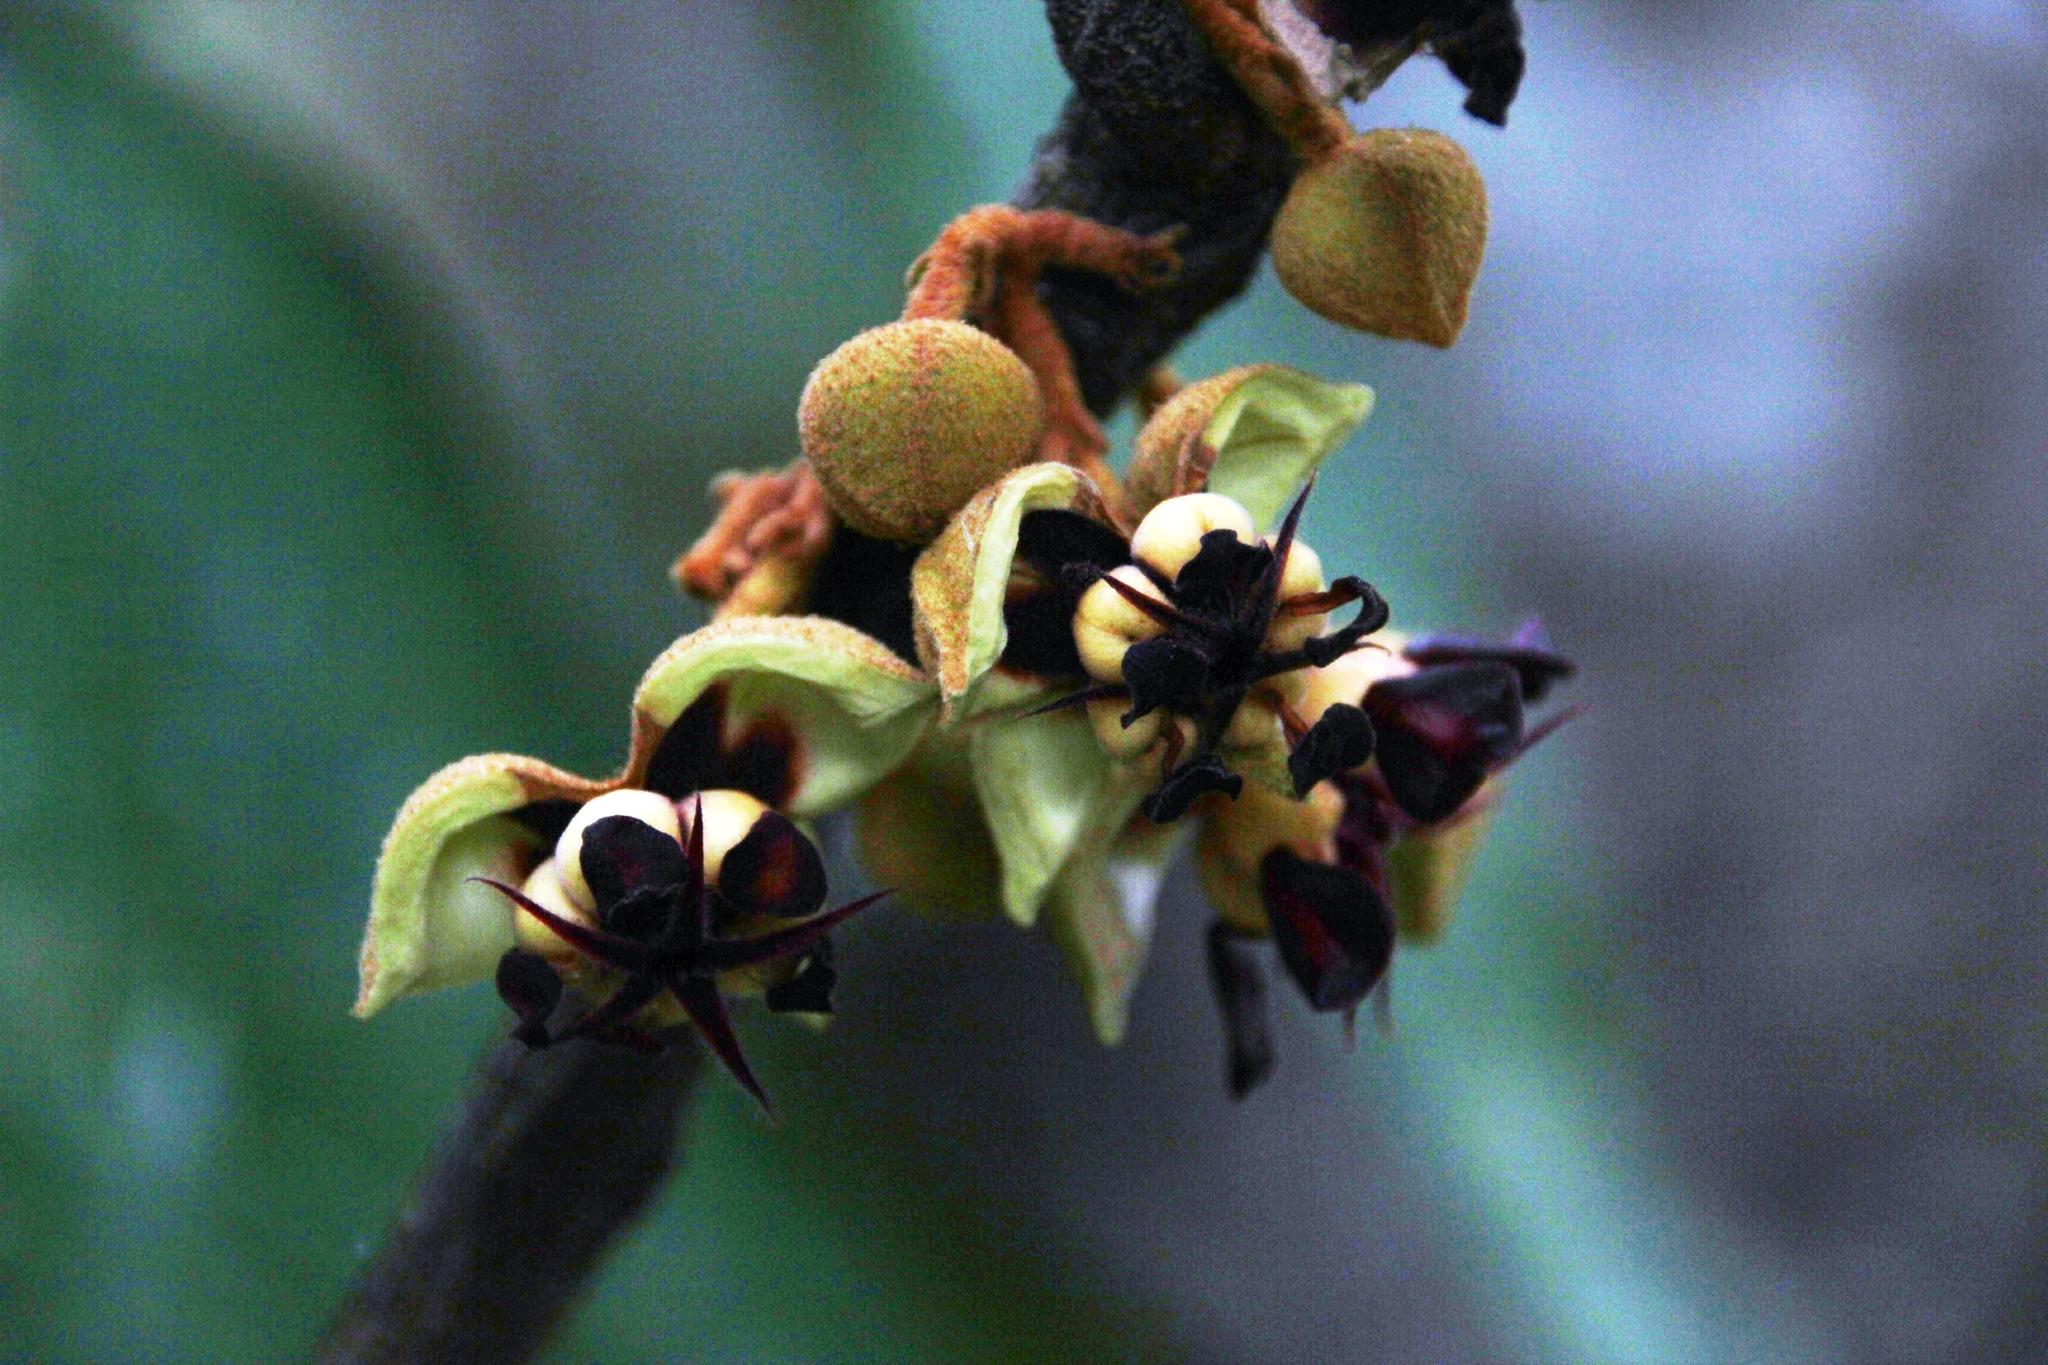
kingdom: Plantae
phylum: Tracheophyta
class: Magnoliopsida
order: Malvales
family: Malvaceae
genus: Theobroma
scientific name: Theobroma cacao
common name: Cocoa
